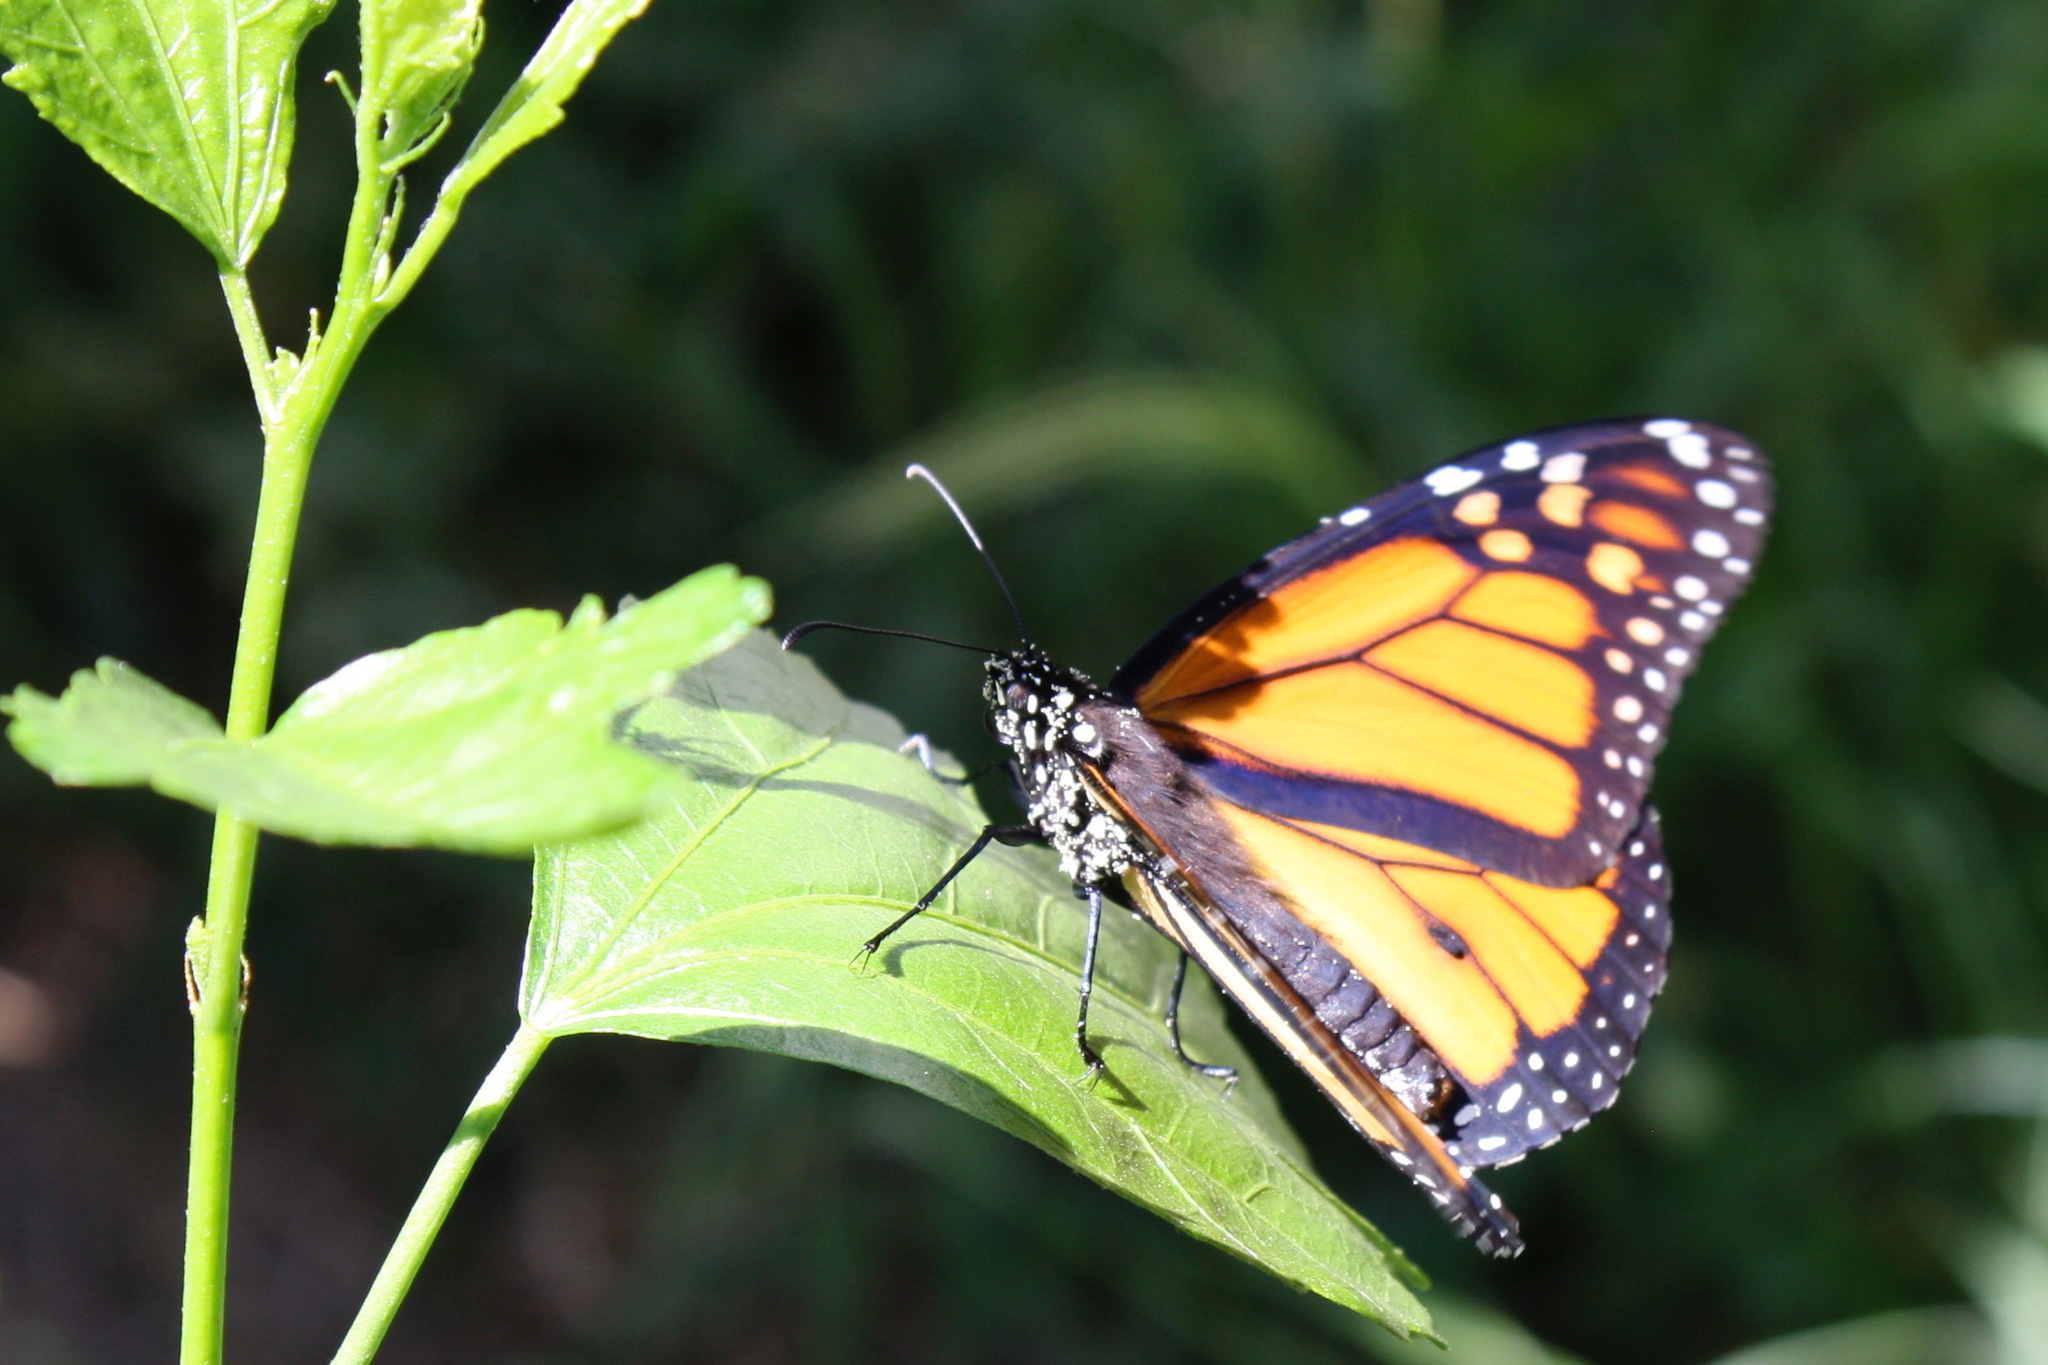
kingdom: Animalia
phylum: Arthropoda
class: Insecta
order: Lepidoptera
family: Nymphalidae
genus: Danaus
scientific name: Danaus plexippus
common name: Monarch
